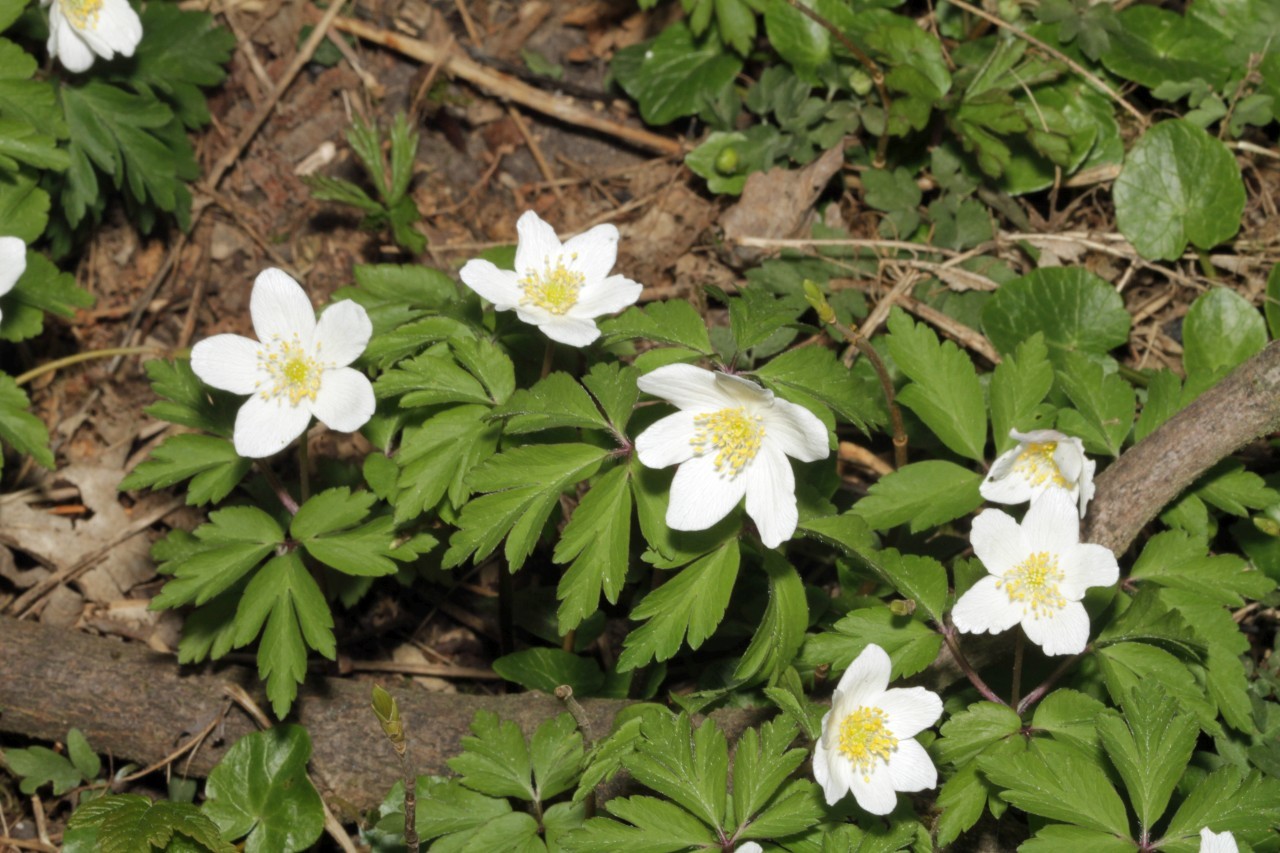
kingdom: Plantae
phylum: Tracheophyta
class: Magnoliopsida
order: Ranunculales
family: Ranunculaceae
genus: Anemone
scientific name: Anemone nemorosa
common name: Wood anemone
